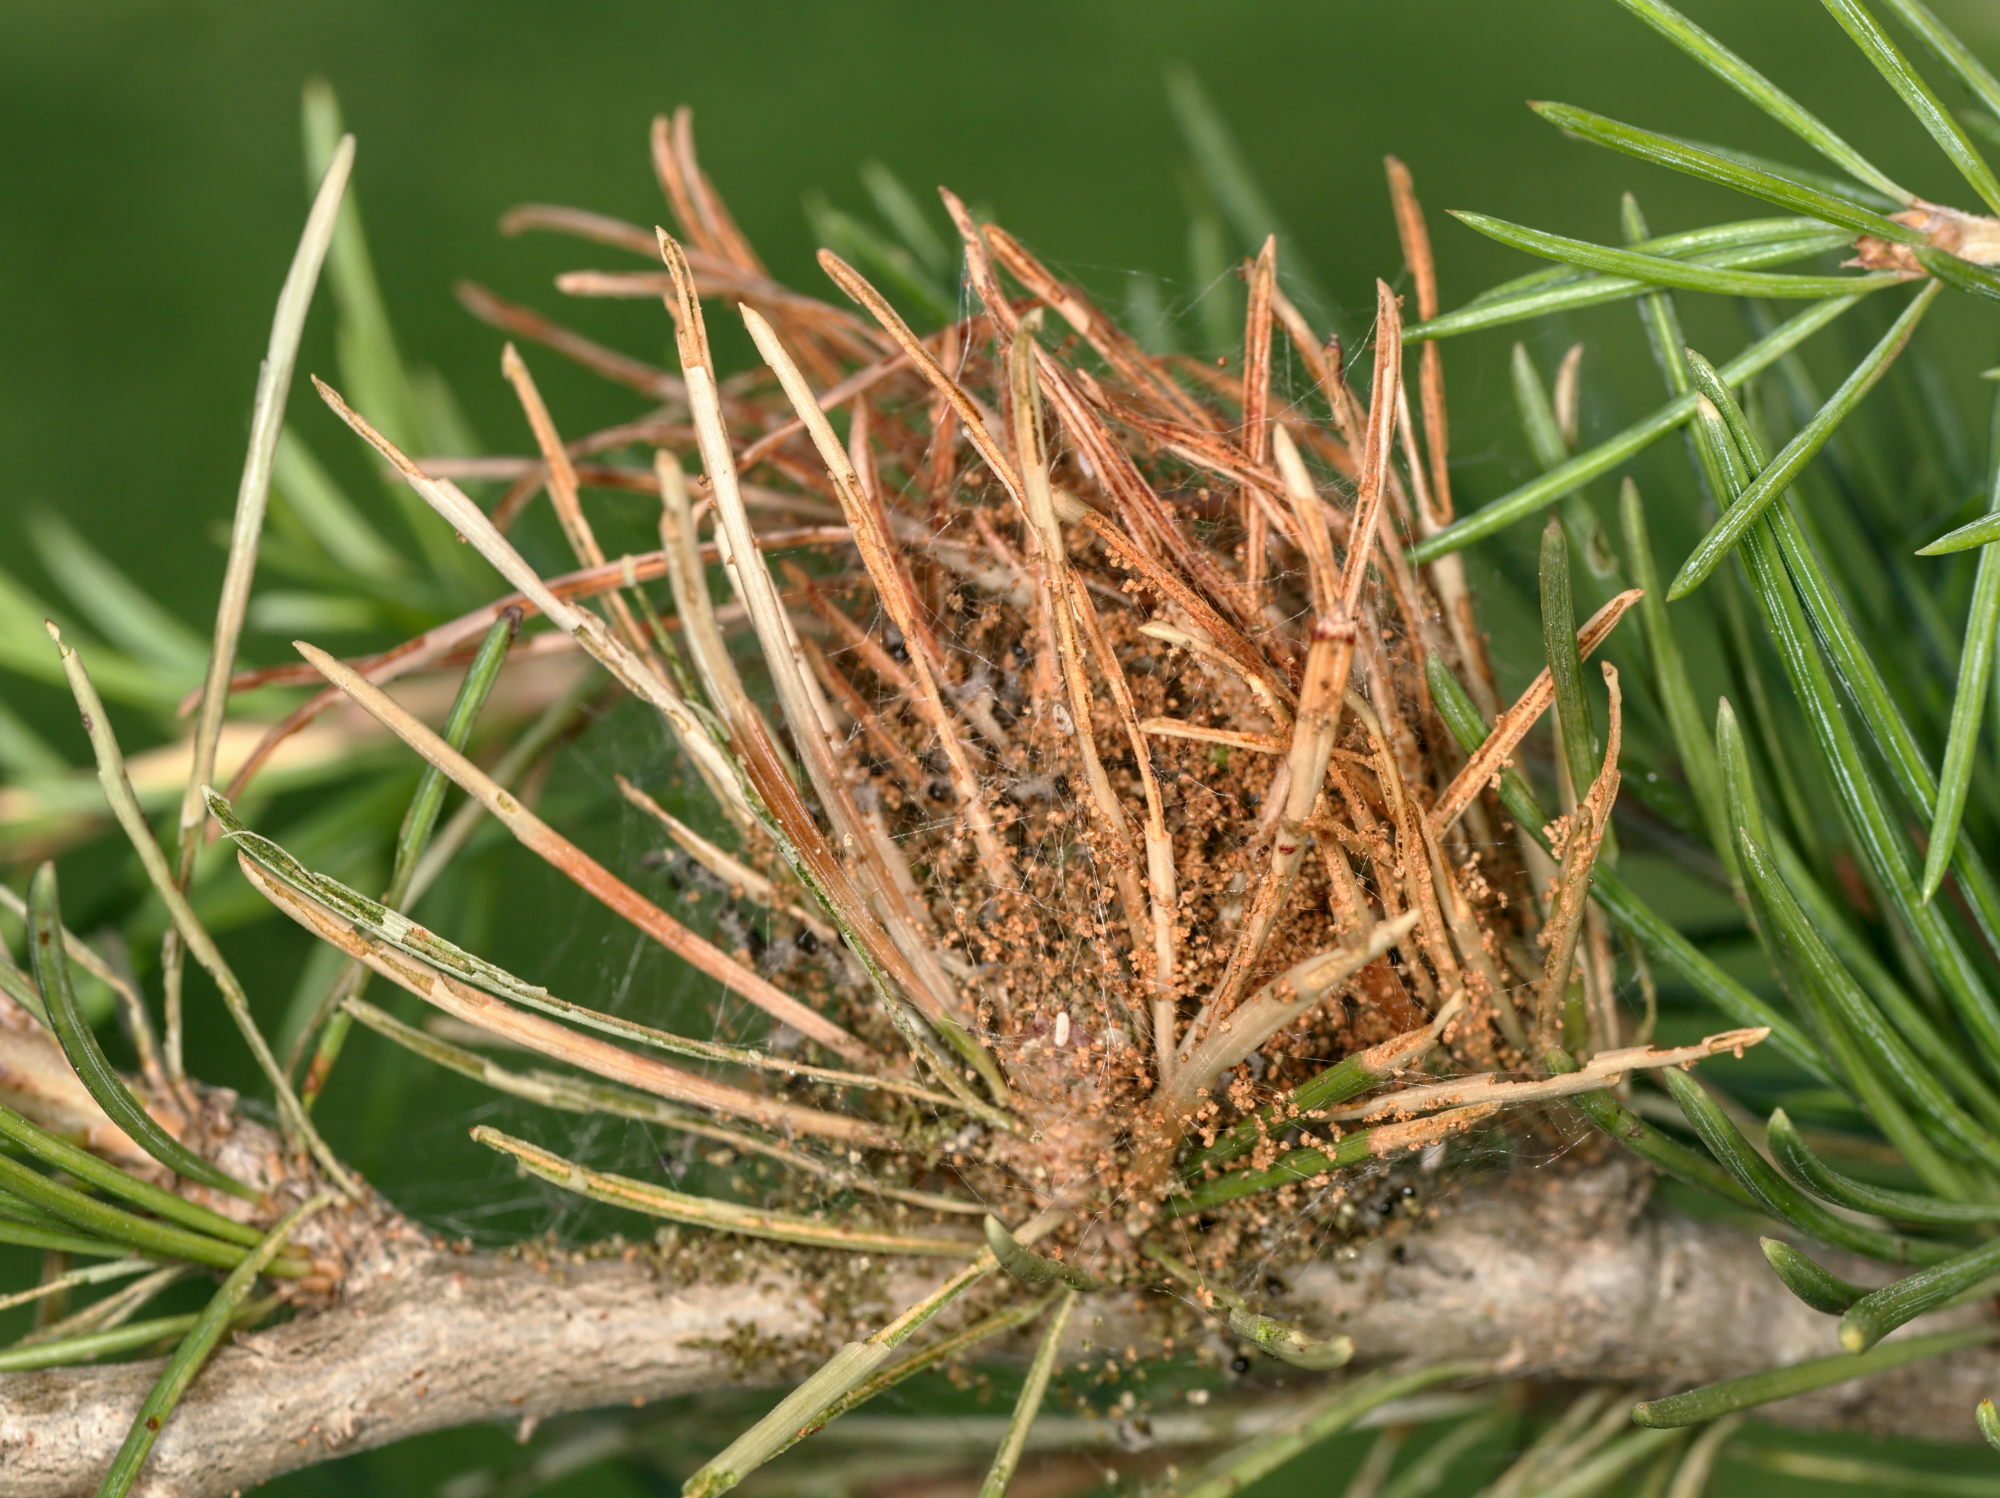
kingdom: Animalia
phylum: Arthropoda
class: Insecta
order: Lepidoptera
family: Notodontidae
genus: Thaumetopoea
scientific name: Thaumetopoea pityocampa
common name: Pine processionary
